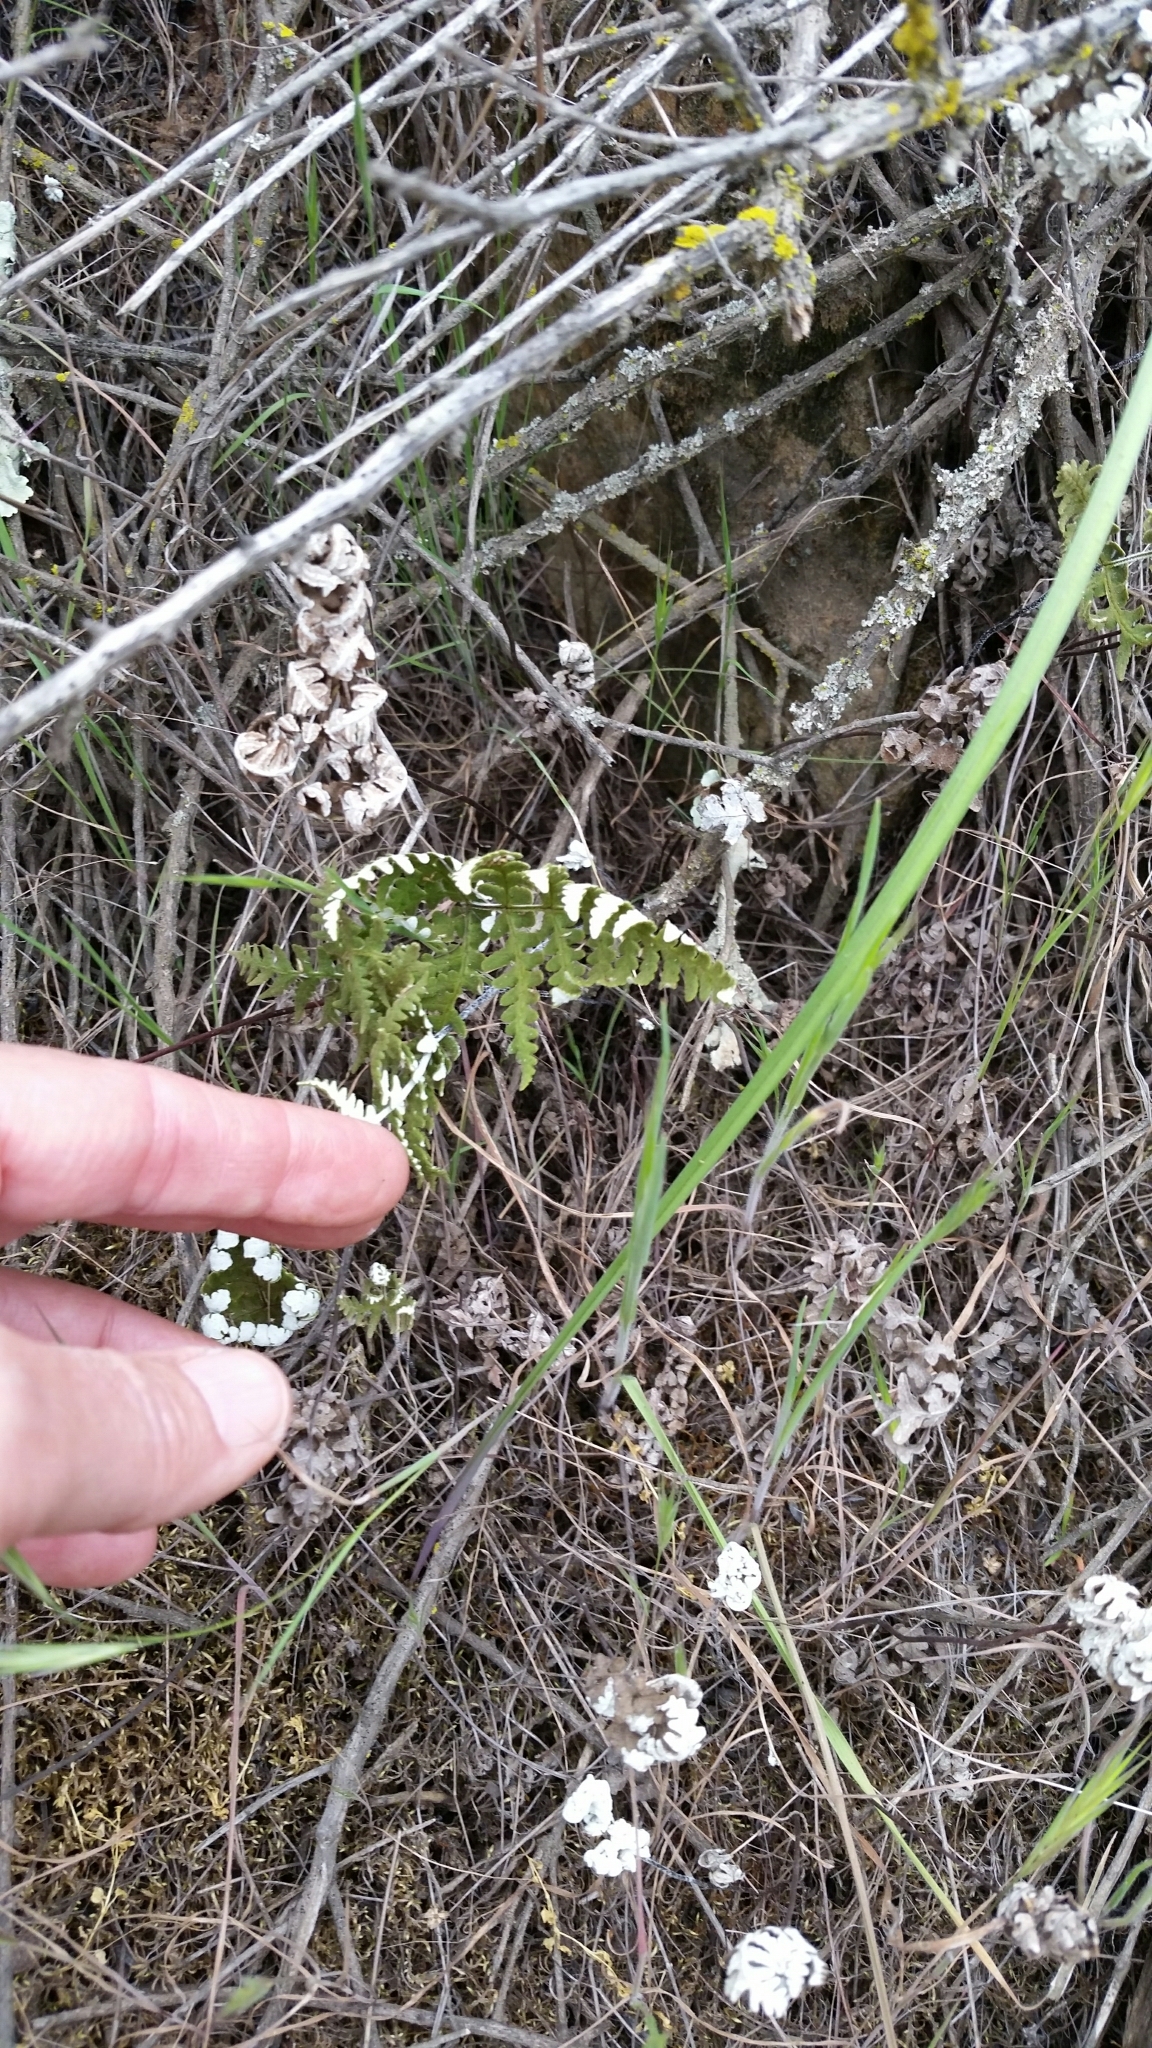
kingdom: Plantae
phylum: Tracheophyta
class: Polypodiopsida
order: Polypodiales
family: Pteridaceae
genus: Pentagramma
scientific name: Pentagramma glanduloviscida
